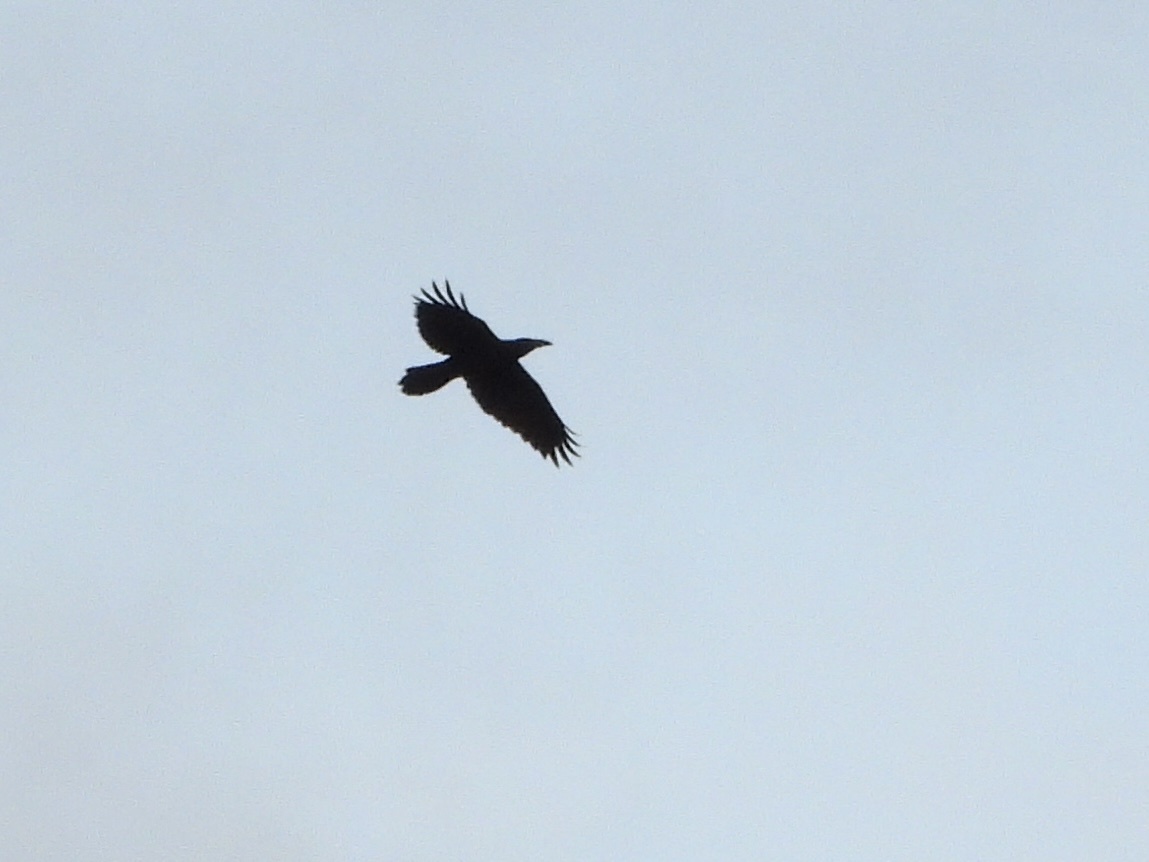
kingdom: Animalia
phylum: Chordata
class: Aves
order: Passeriformes
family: Corvidae
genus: Corvus
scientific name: Corvus corax
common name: Common raven
